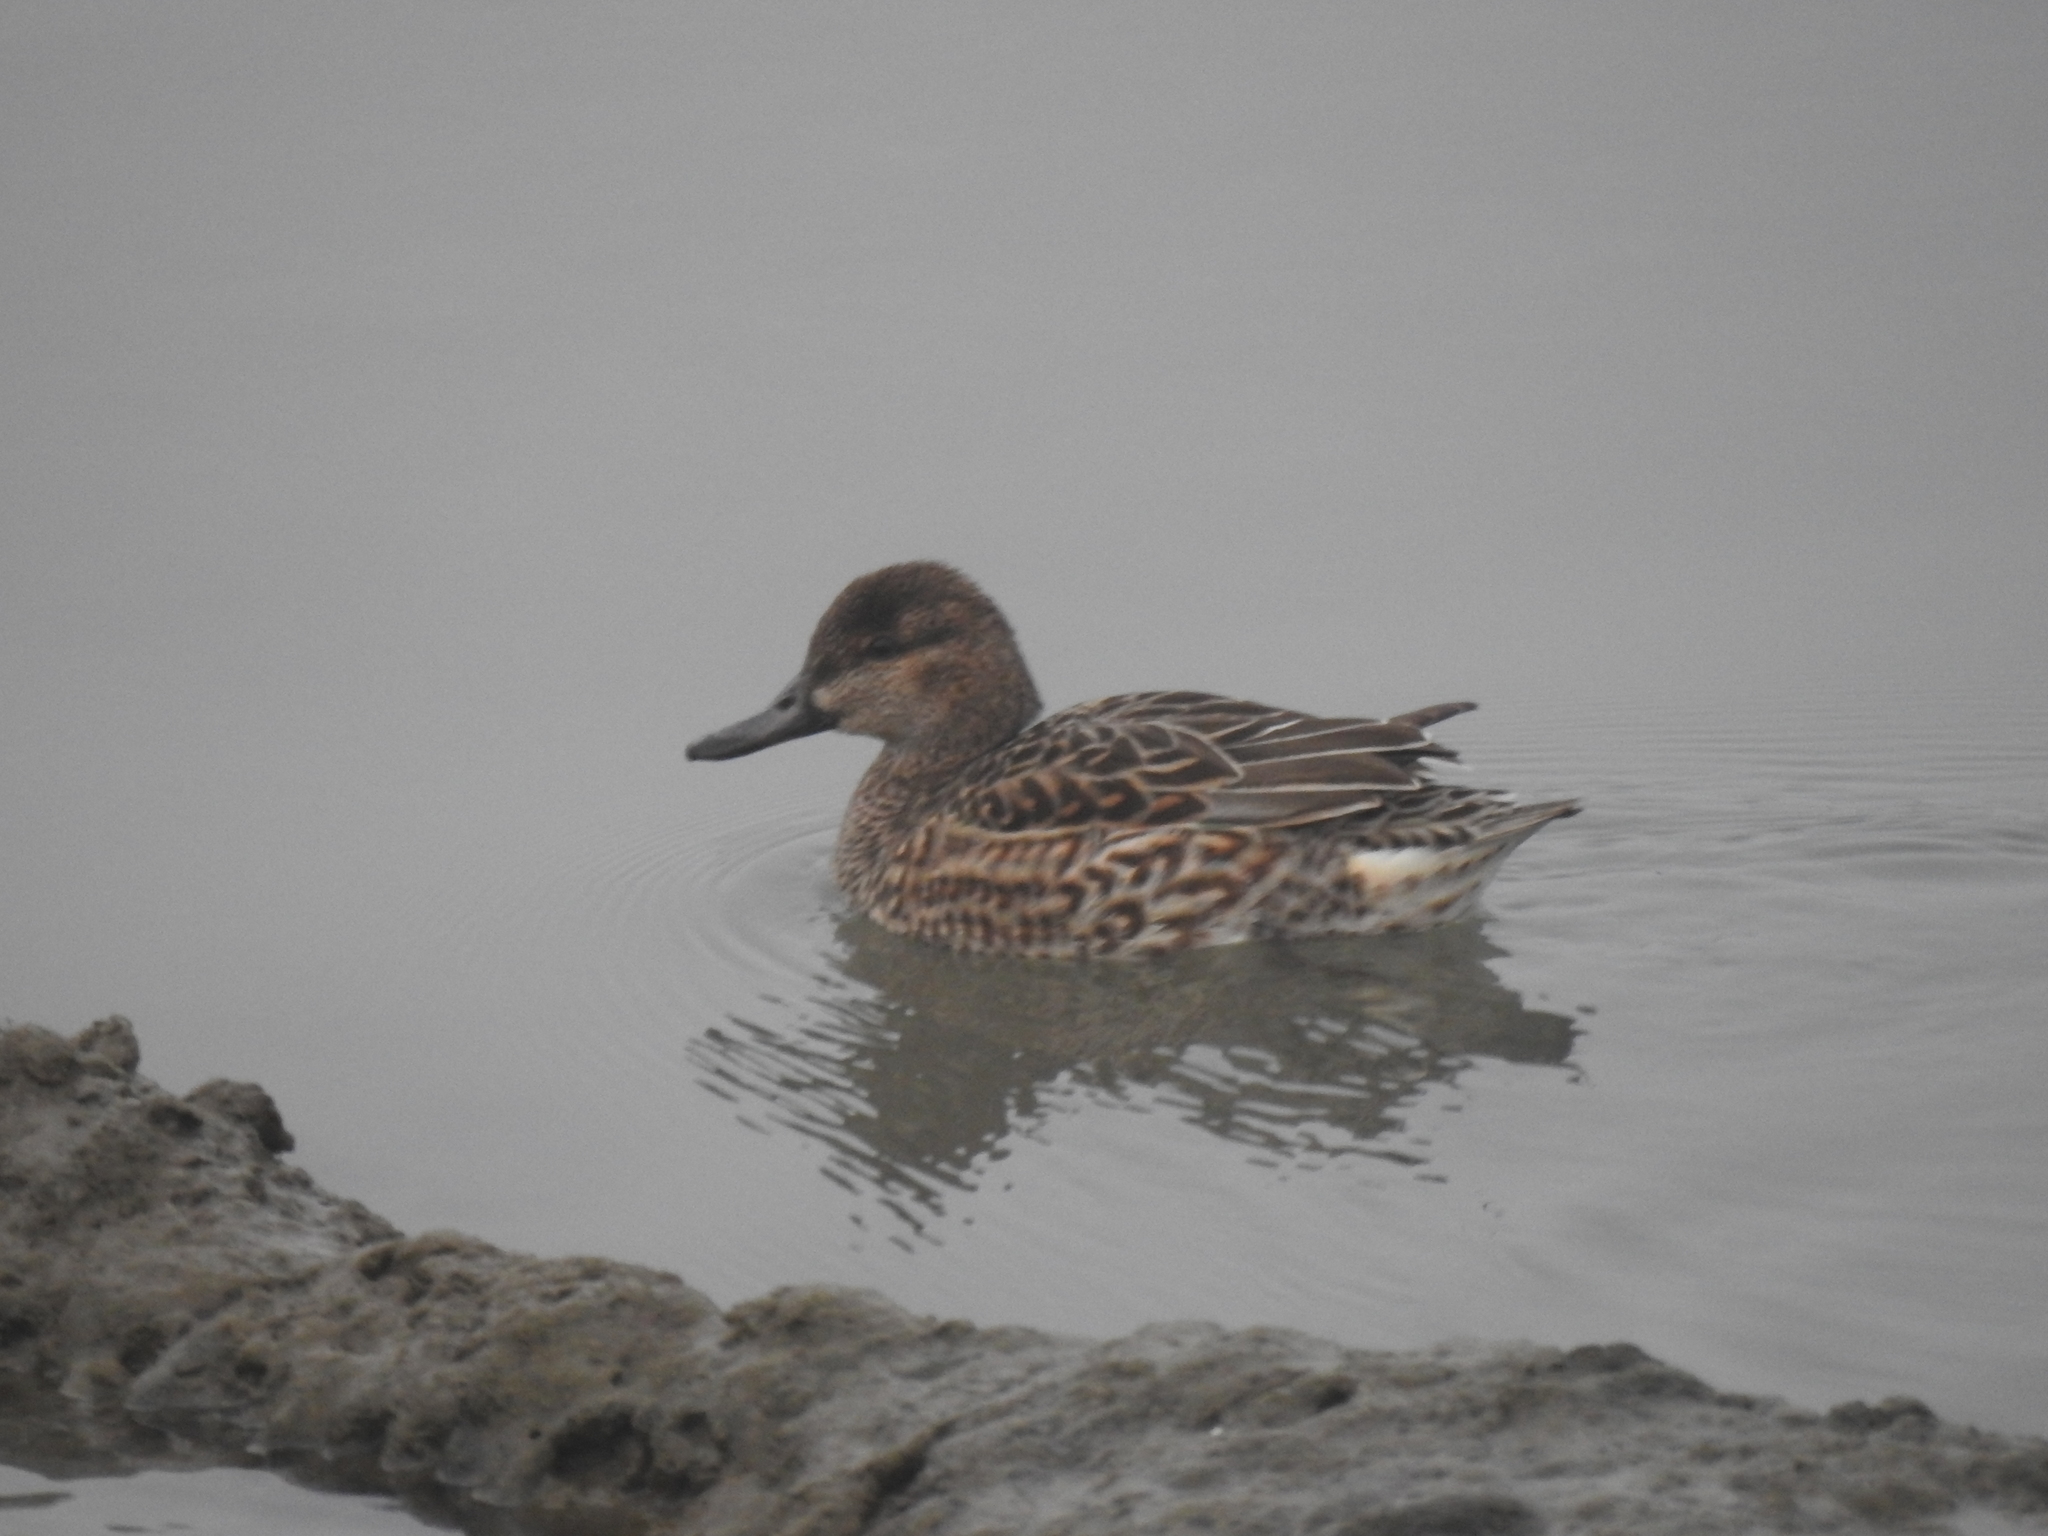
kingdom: Animalia
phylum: Chordata
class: Aves
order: Anseriformes
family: Anatidae
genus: Anas
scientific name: Anas crecca
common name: Eurasian teal
